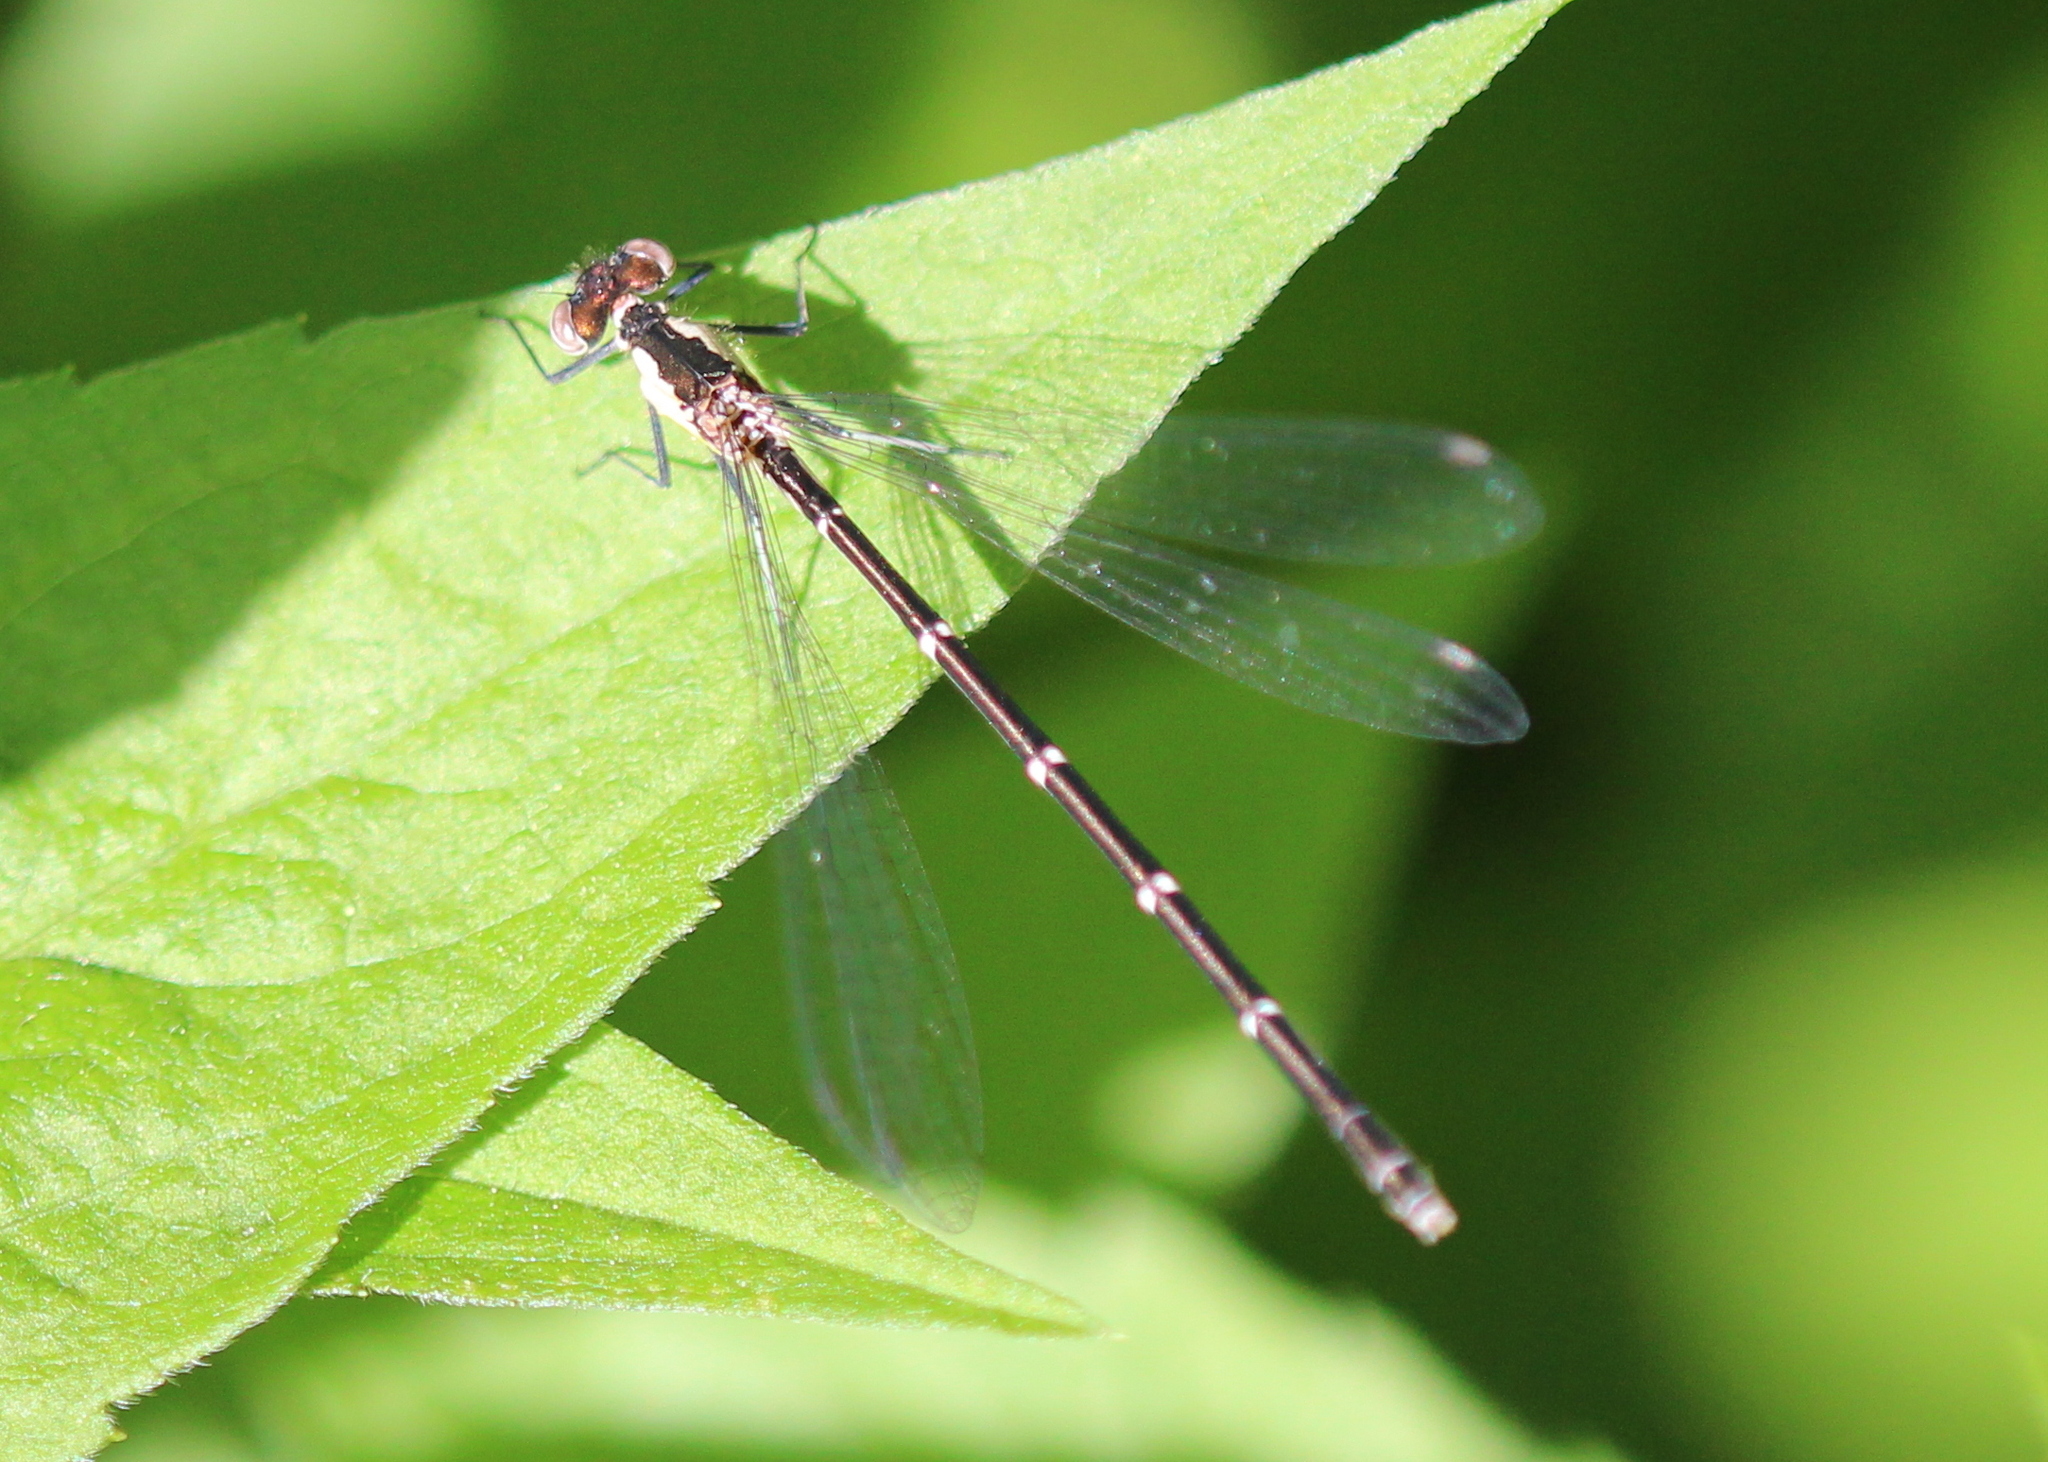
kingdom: Animalia
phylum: Arthropoda
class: Insecta
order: Odonata
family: Coenagrionidae
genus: Chromagrion
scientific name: Chromagrion conditum
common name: Aurora damsel
